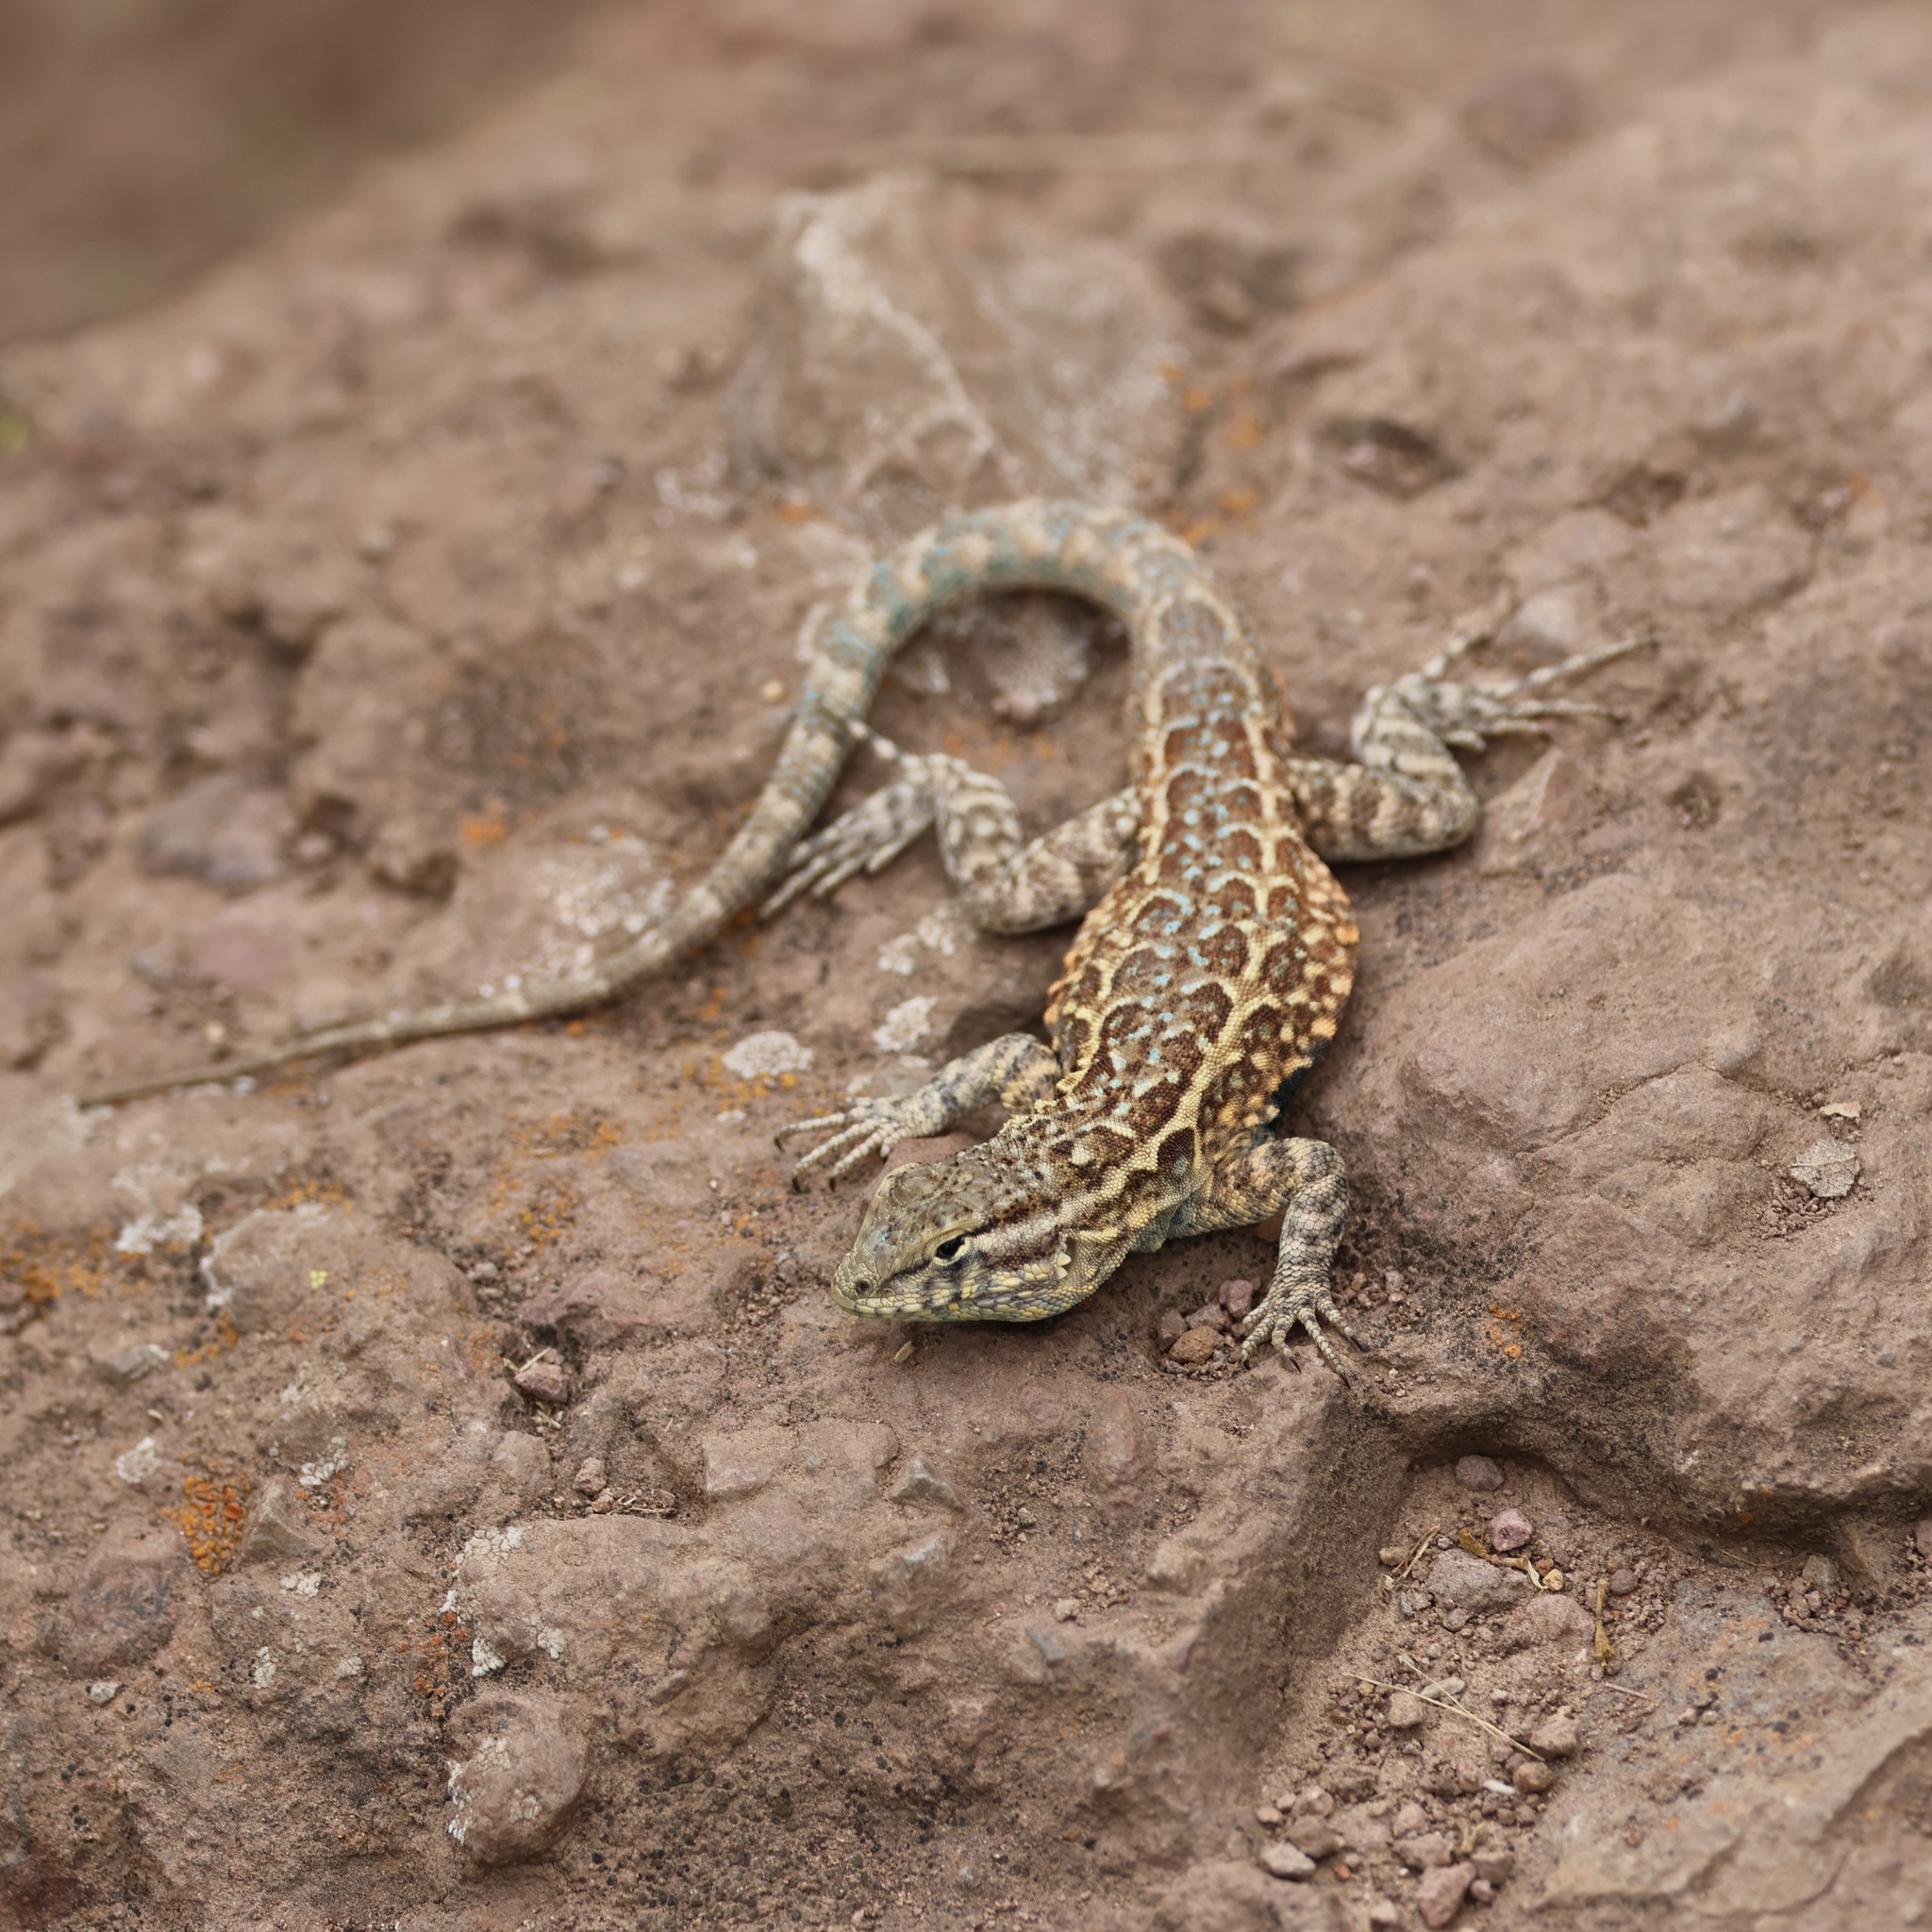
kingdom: Animalia
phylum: Chordata
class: Squamata
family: Phrynosomatidae
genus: Uta
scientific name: Uta stansburiana
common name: Side-blotched lizard
